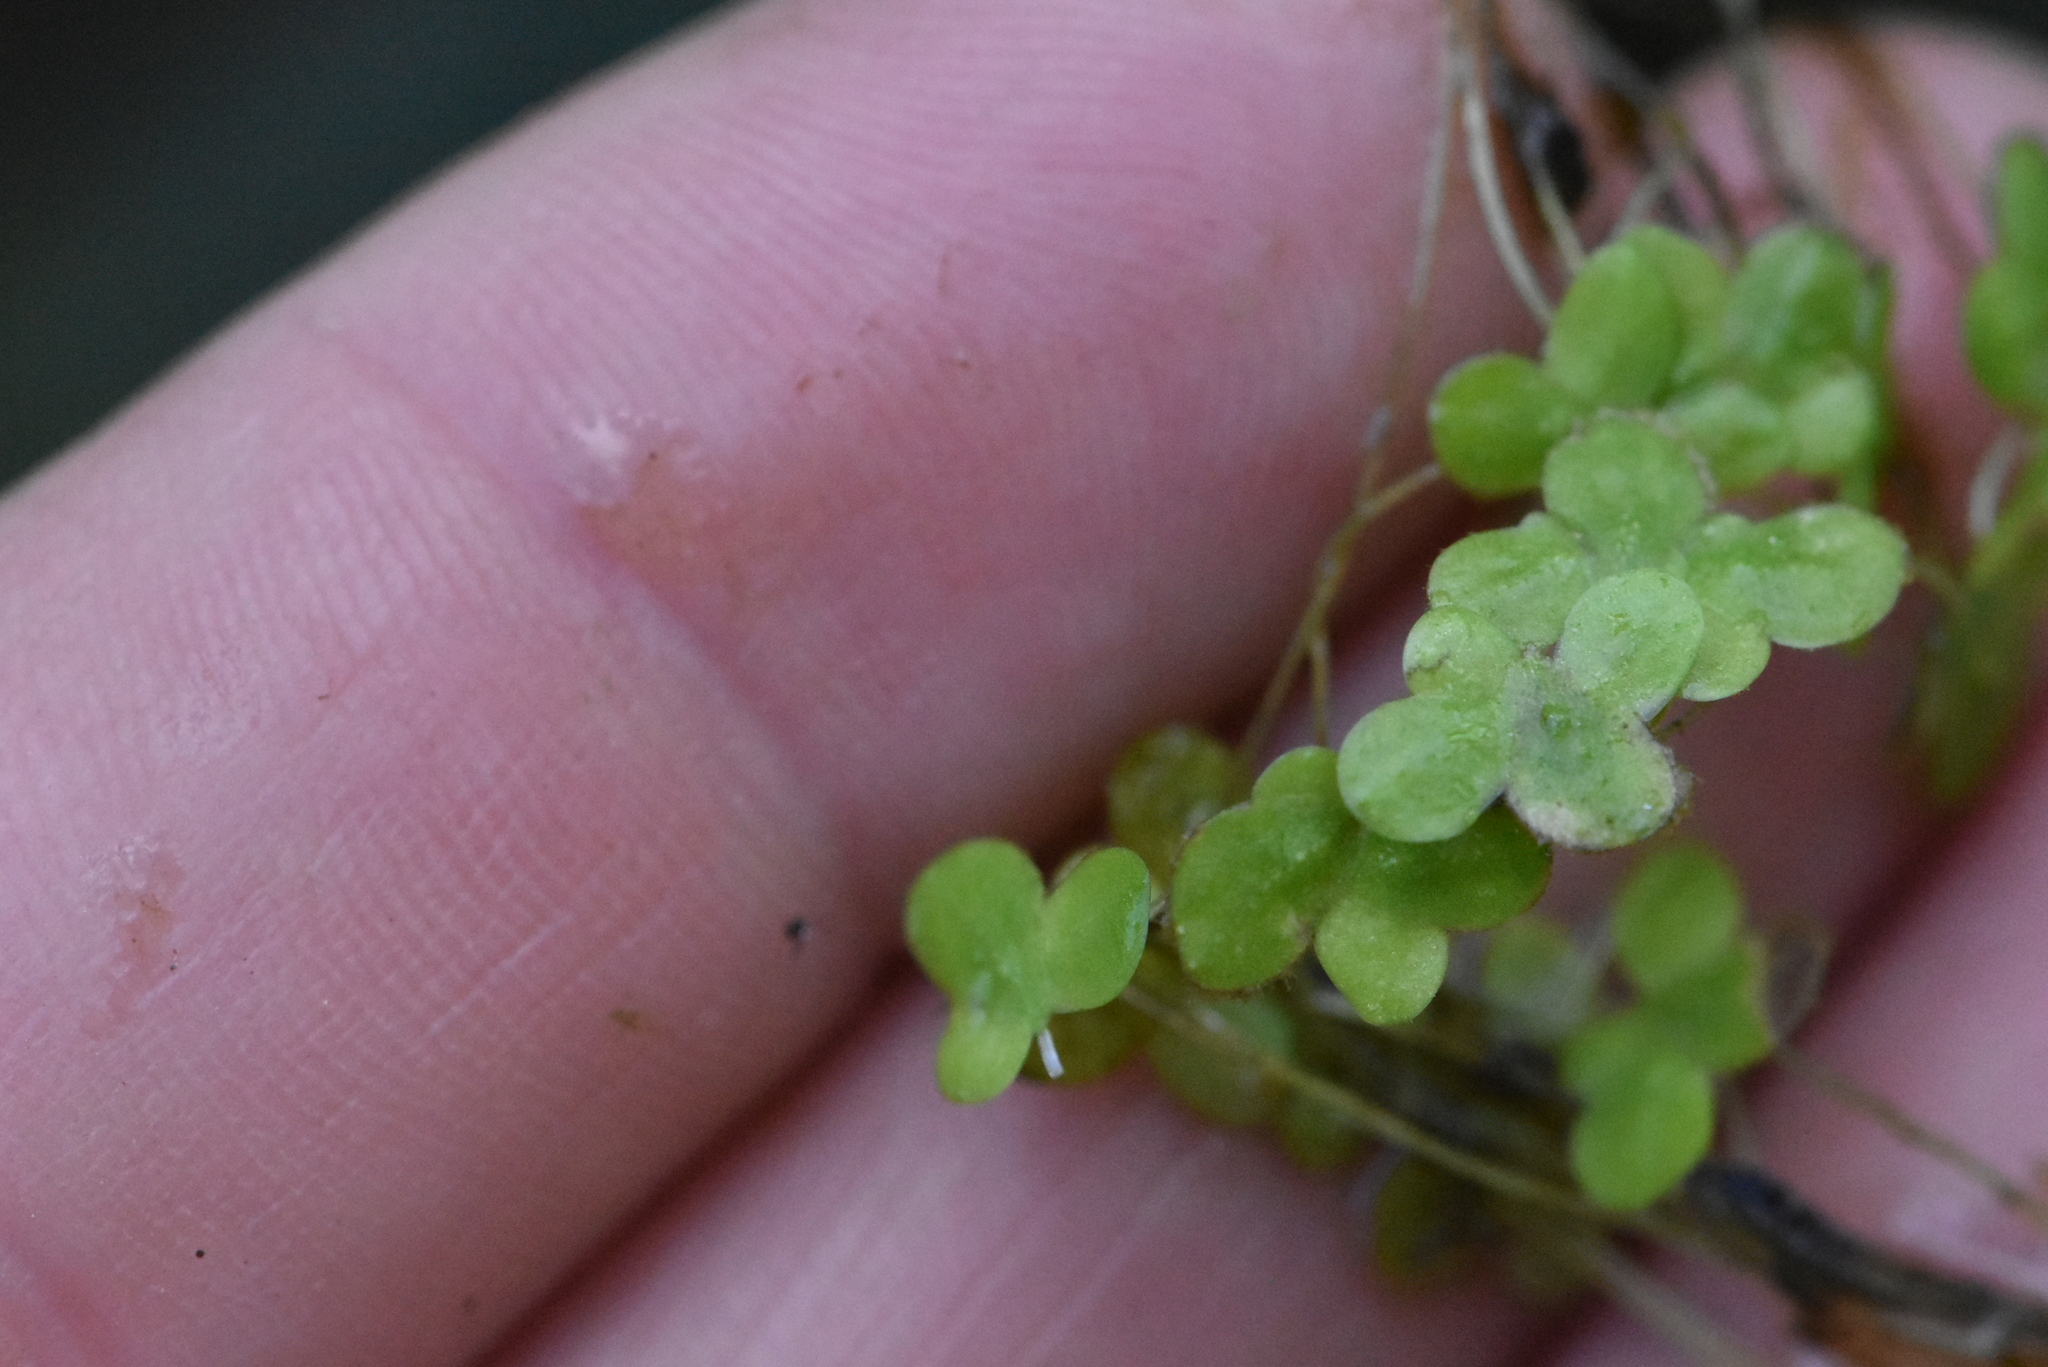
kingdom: Plantae
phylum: Tracheophyta
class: Liliopsida
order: Alismatales
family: Araceae
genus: Lemna
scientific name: Lemna turionifera
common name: Perennial duckweed
